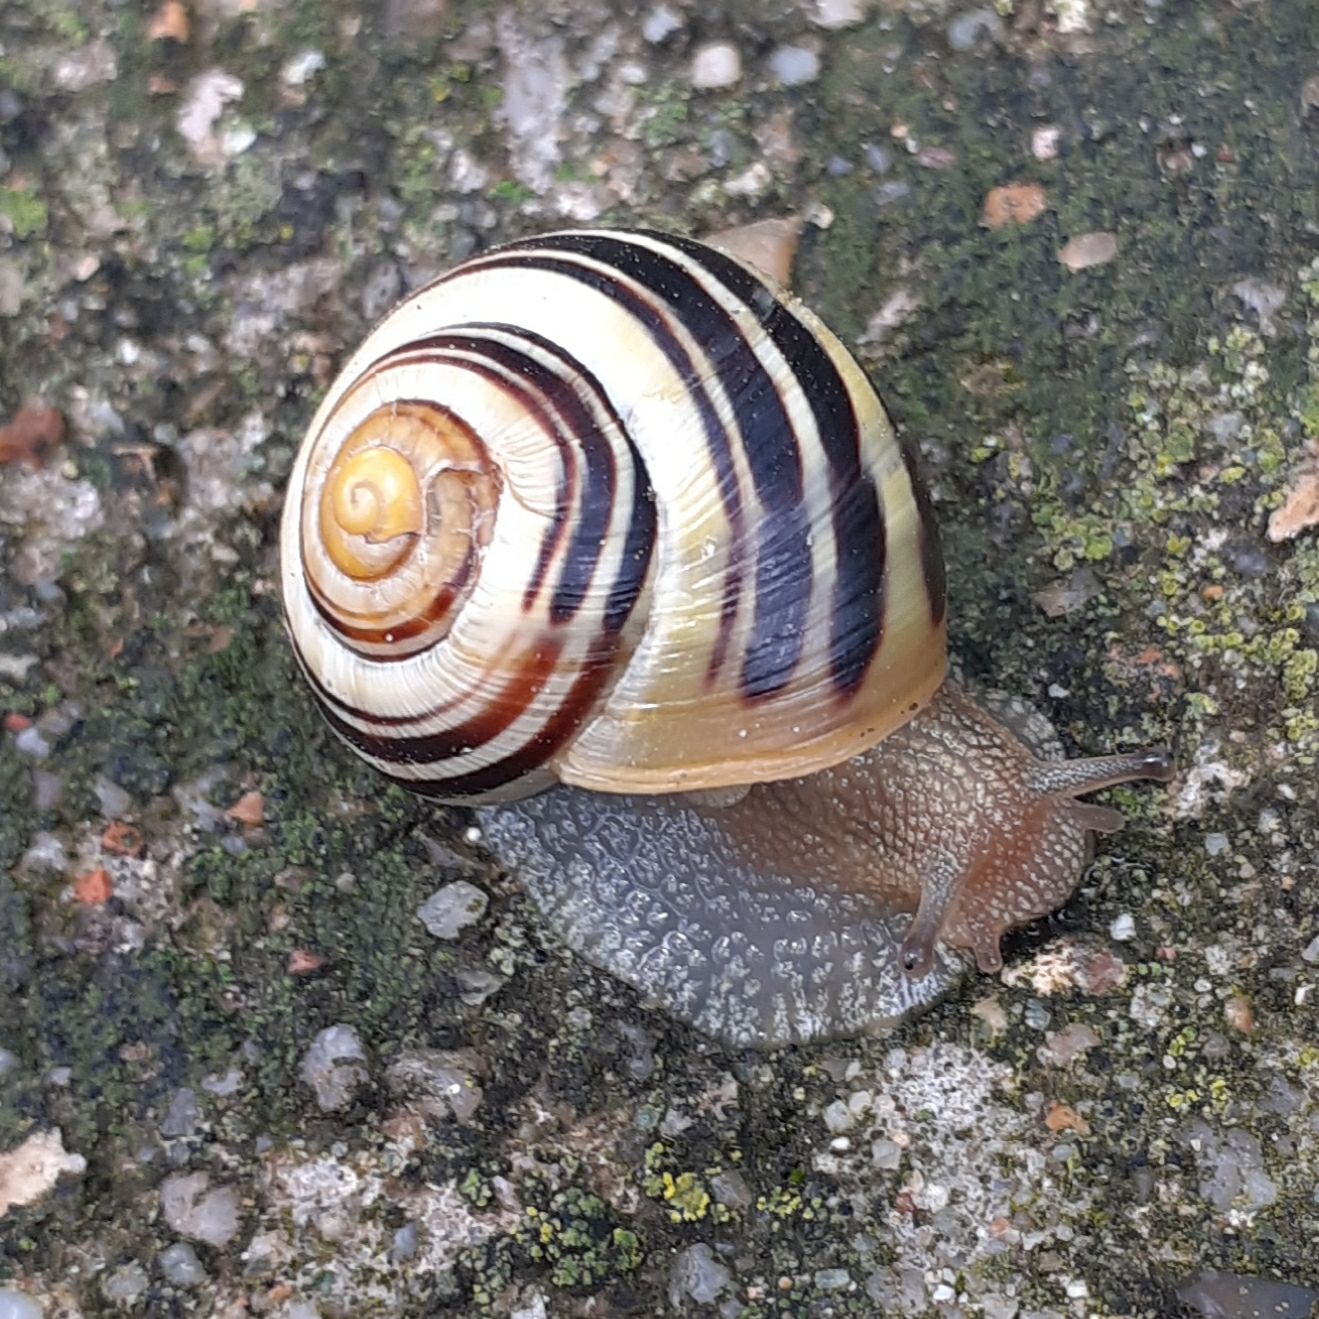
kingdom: Animalia
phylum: Mollusca
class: Gastropoda
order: Stylommatophora
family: Helicidae
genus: Cepaea
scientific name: Cepaea
